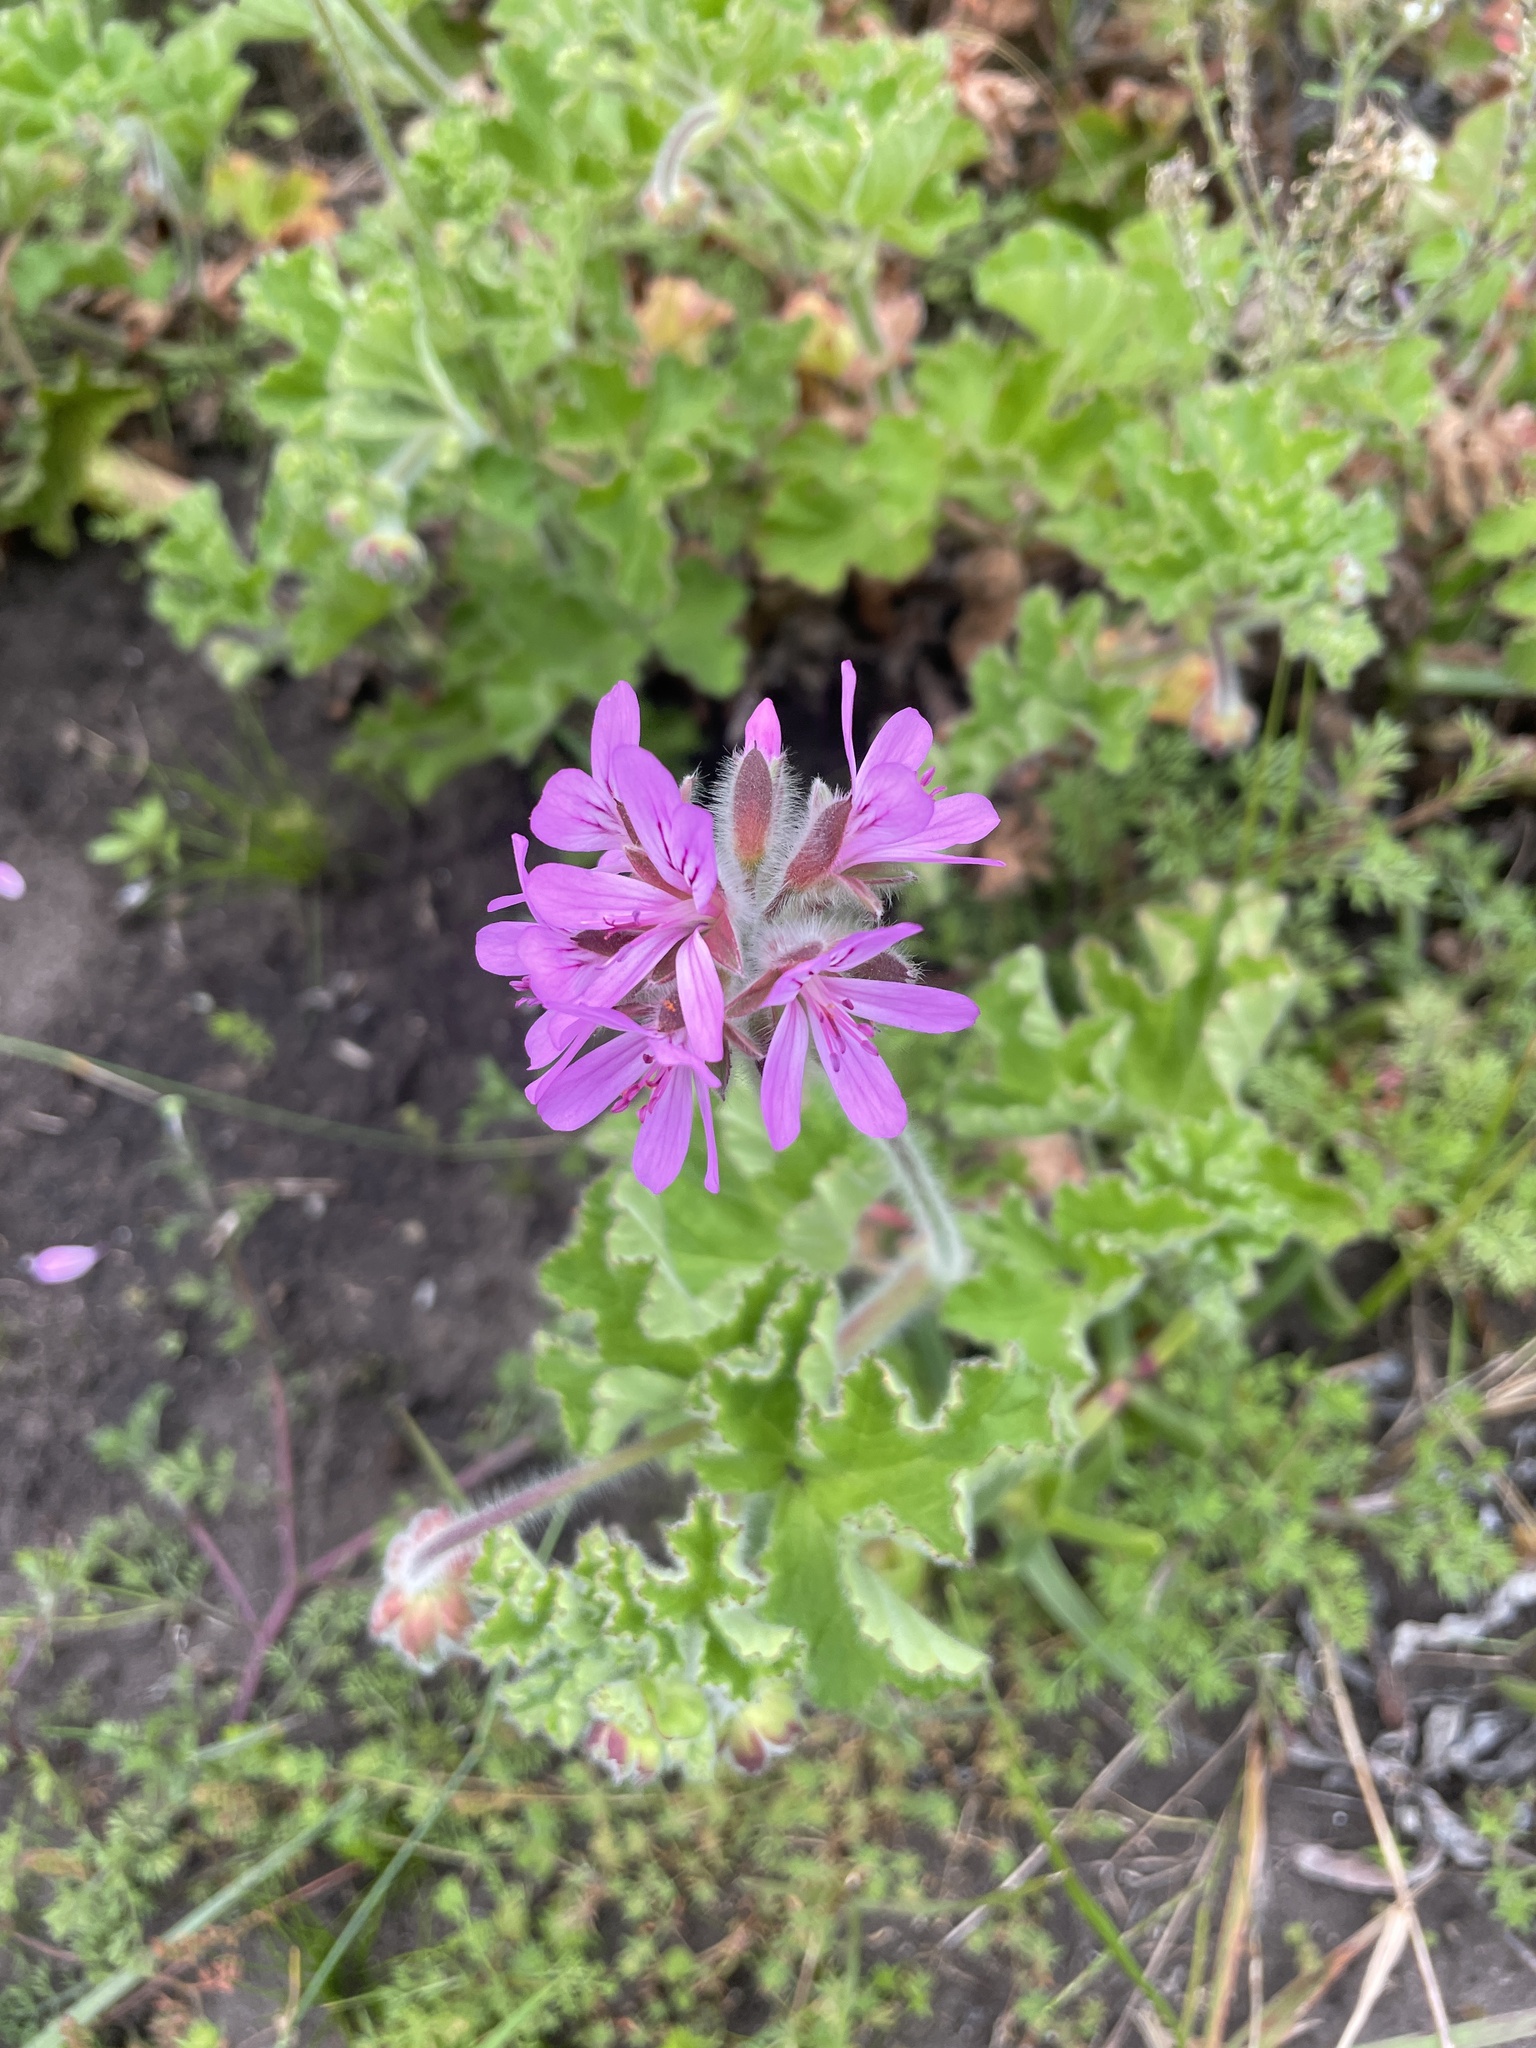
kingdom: Plantae
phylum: Tracheophyta
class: Magnoliopsida
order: Geraniales
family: Geraniaceae
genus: Pelargonium
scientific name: Pelargonium capitatum
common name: Rose scented geranium
